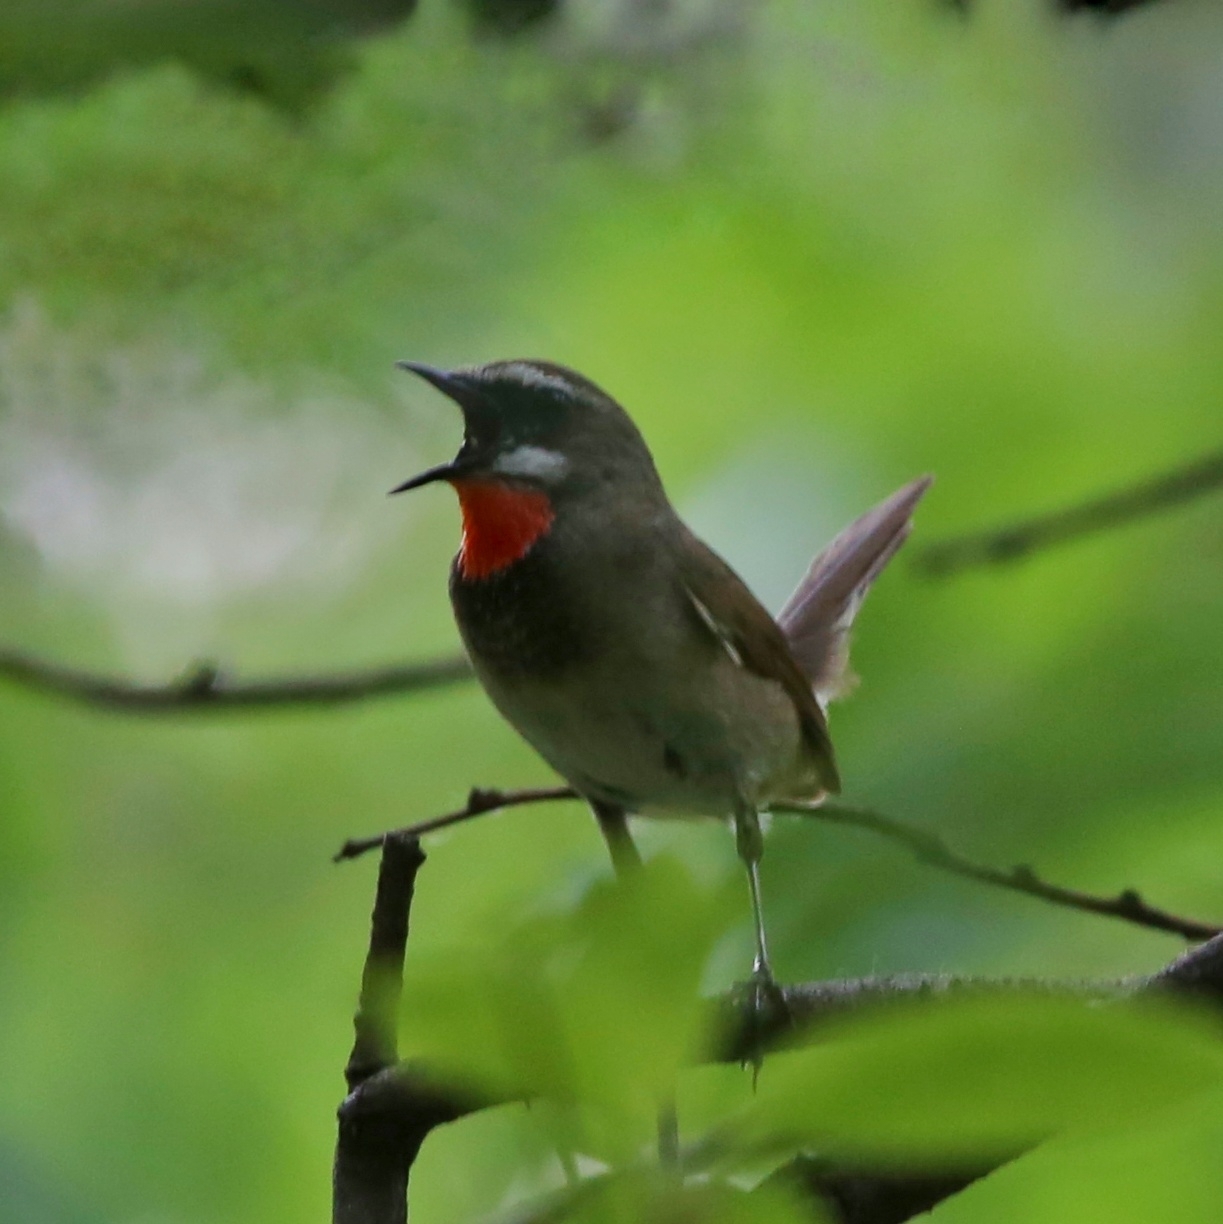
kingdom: Animalia
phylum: Chordata
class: Aves
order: Passeriformes
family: Muscicapidae
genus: Luscinia
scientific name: Luscinia calliope
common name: Siberian rubythroat
